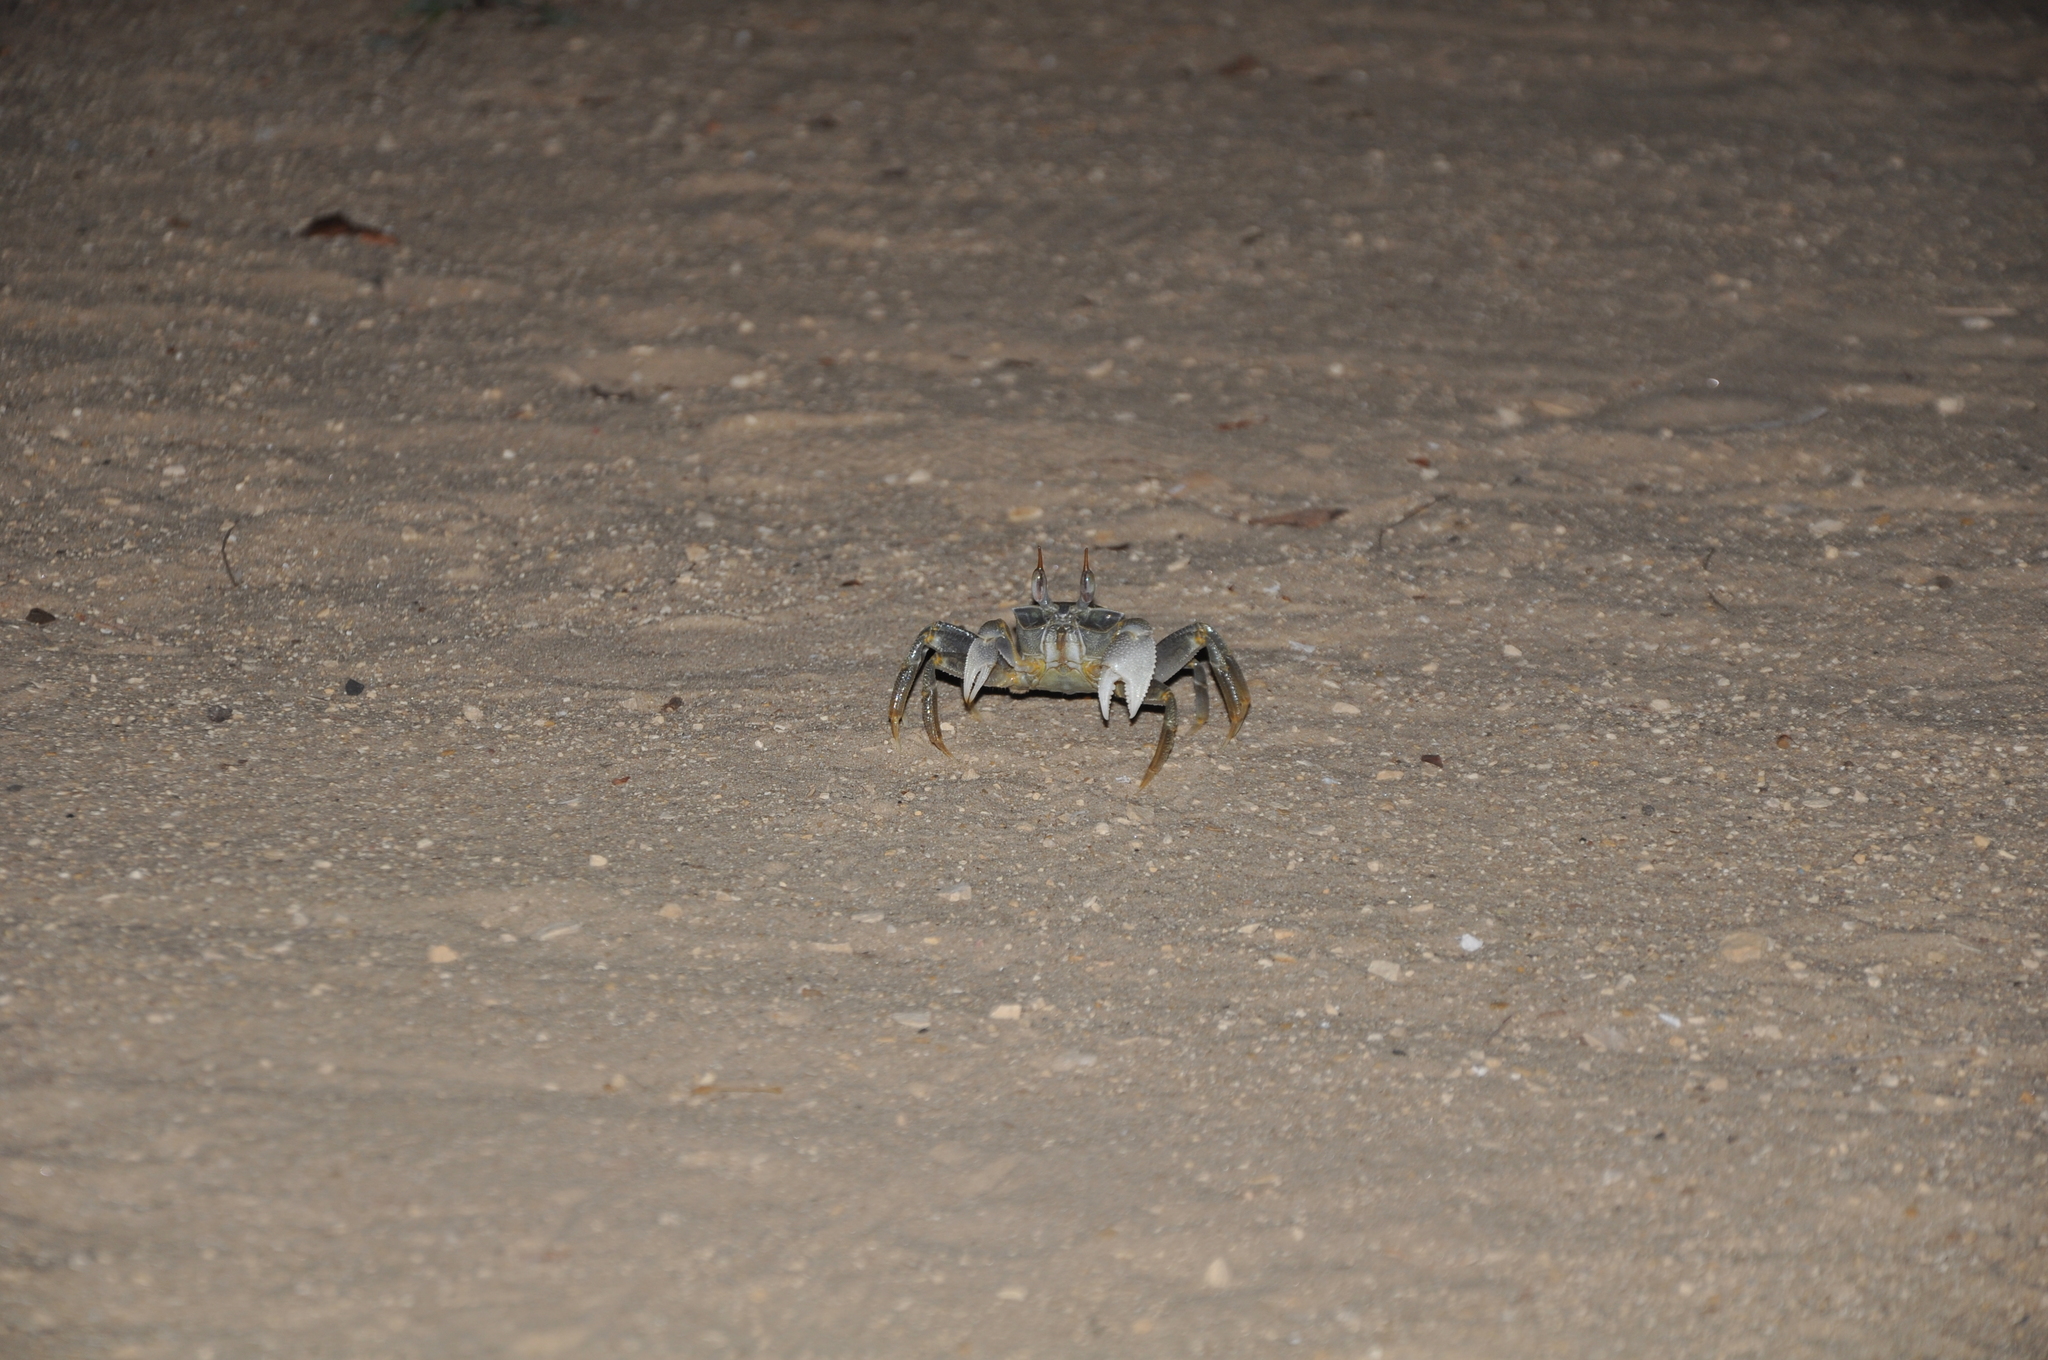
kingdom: Animalia
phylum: Arthropoda
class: Malacostraca
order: Decapoda
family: Ocypodidae
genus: Ocypode
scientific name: Ocypode ceratophthalmus
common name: Indo-pacific ghost crab
